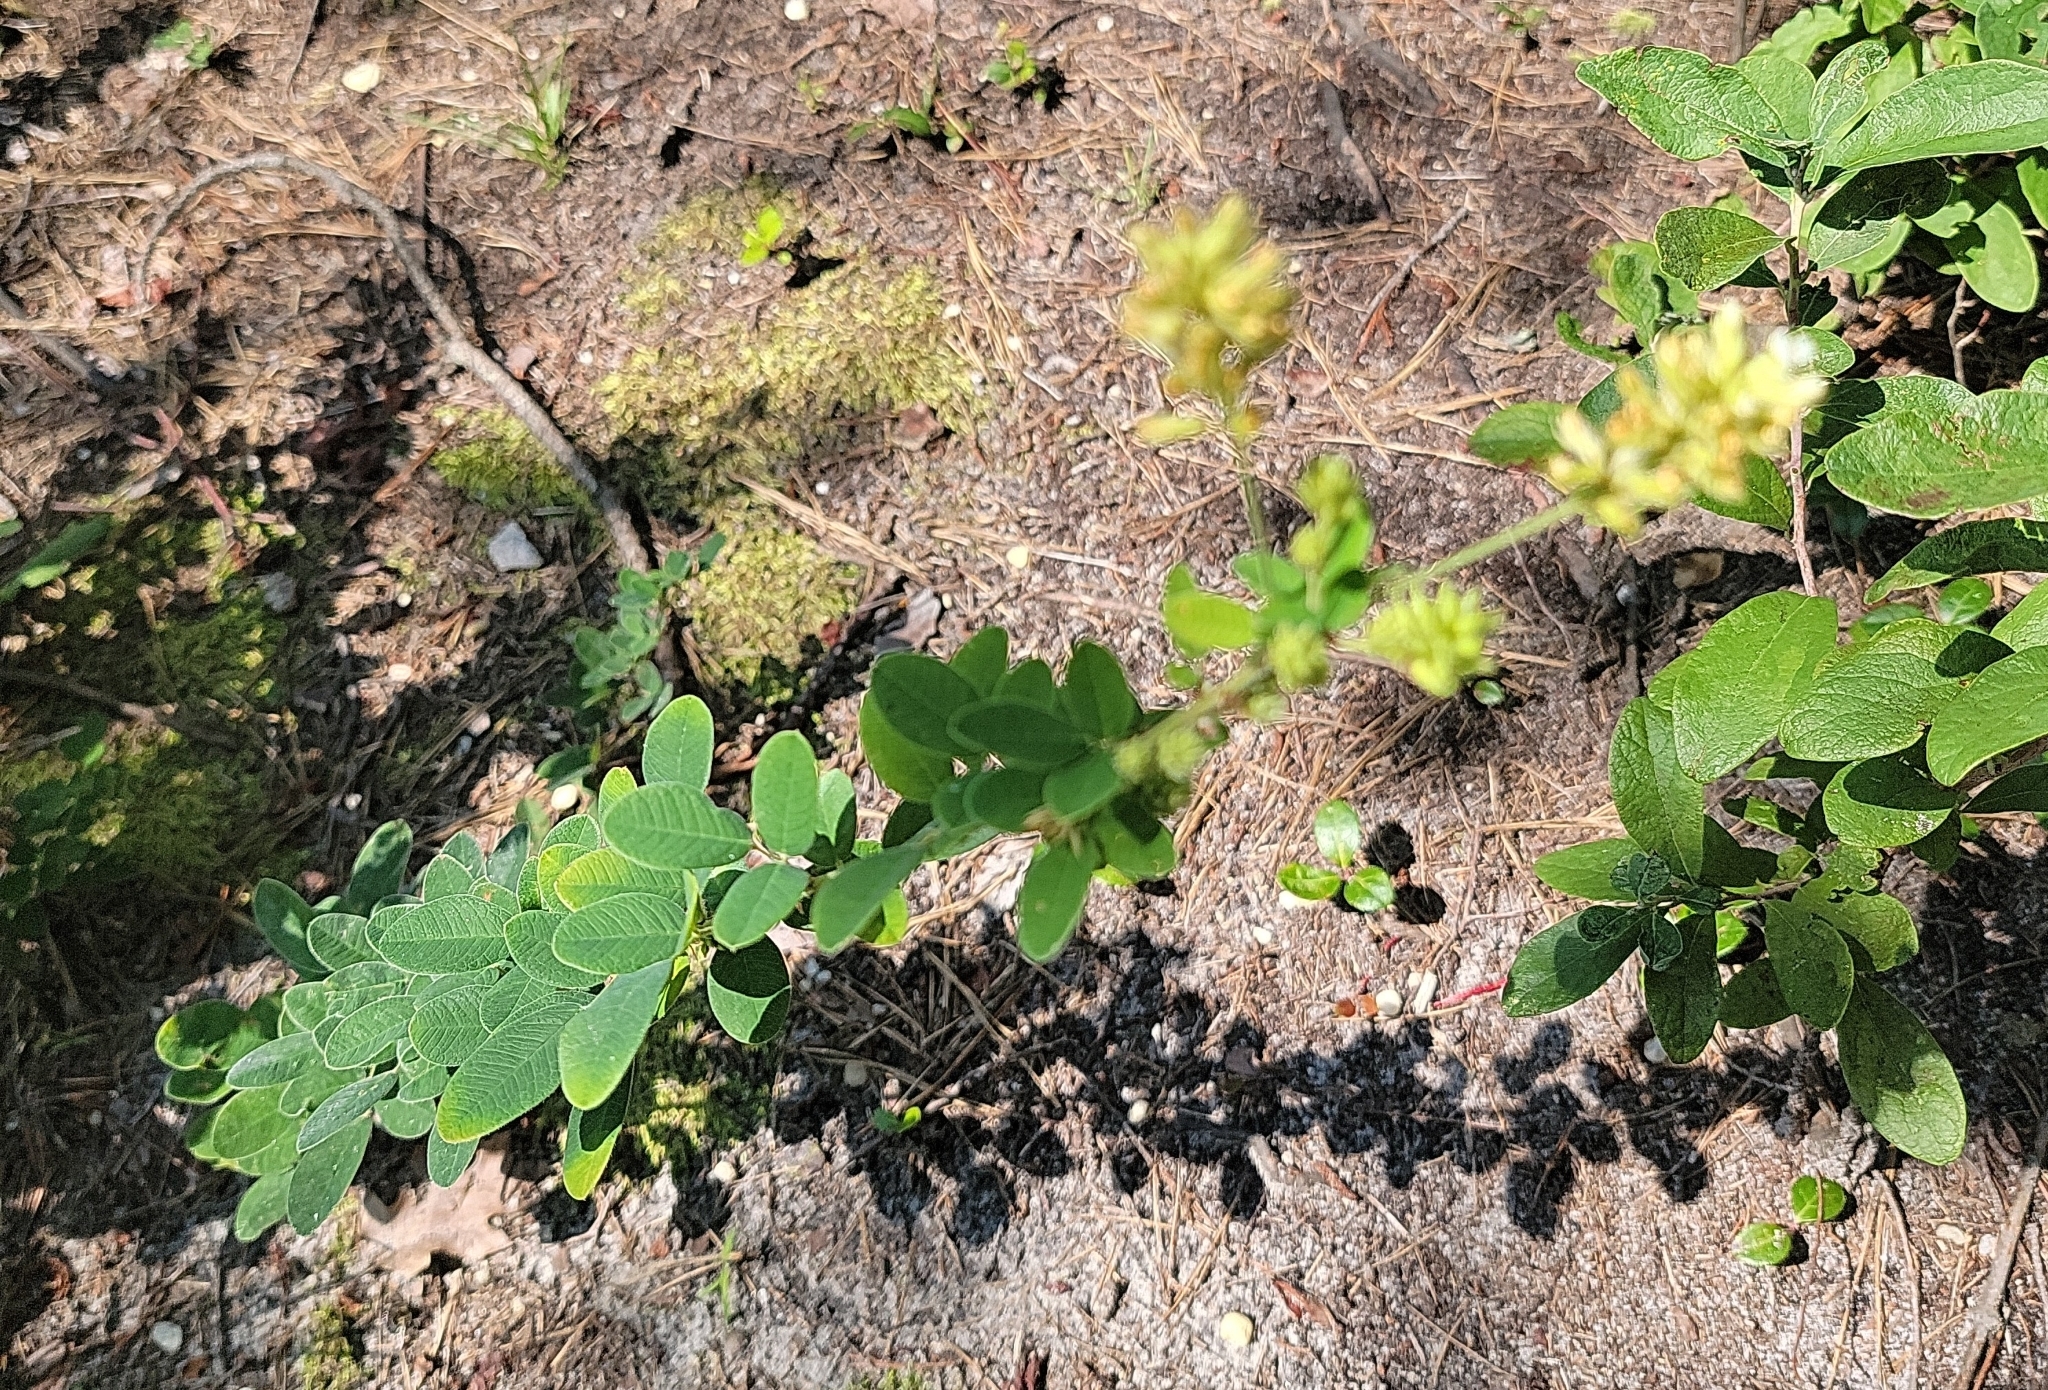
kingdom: Plantae
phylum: Tracheophyta
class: Magnoliopsida
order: Fabales
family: Fabaceae
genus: Lespedeza
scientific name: Lespedeza hirta
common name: Hairy lespedeza
